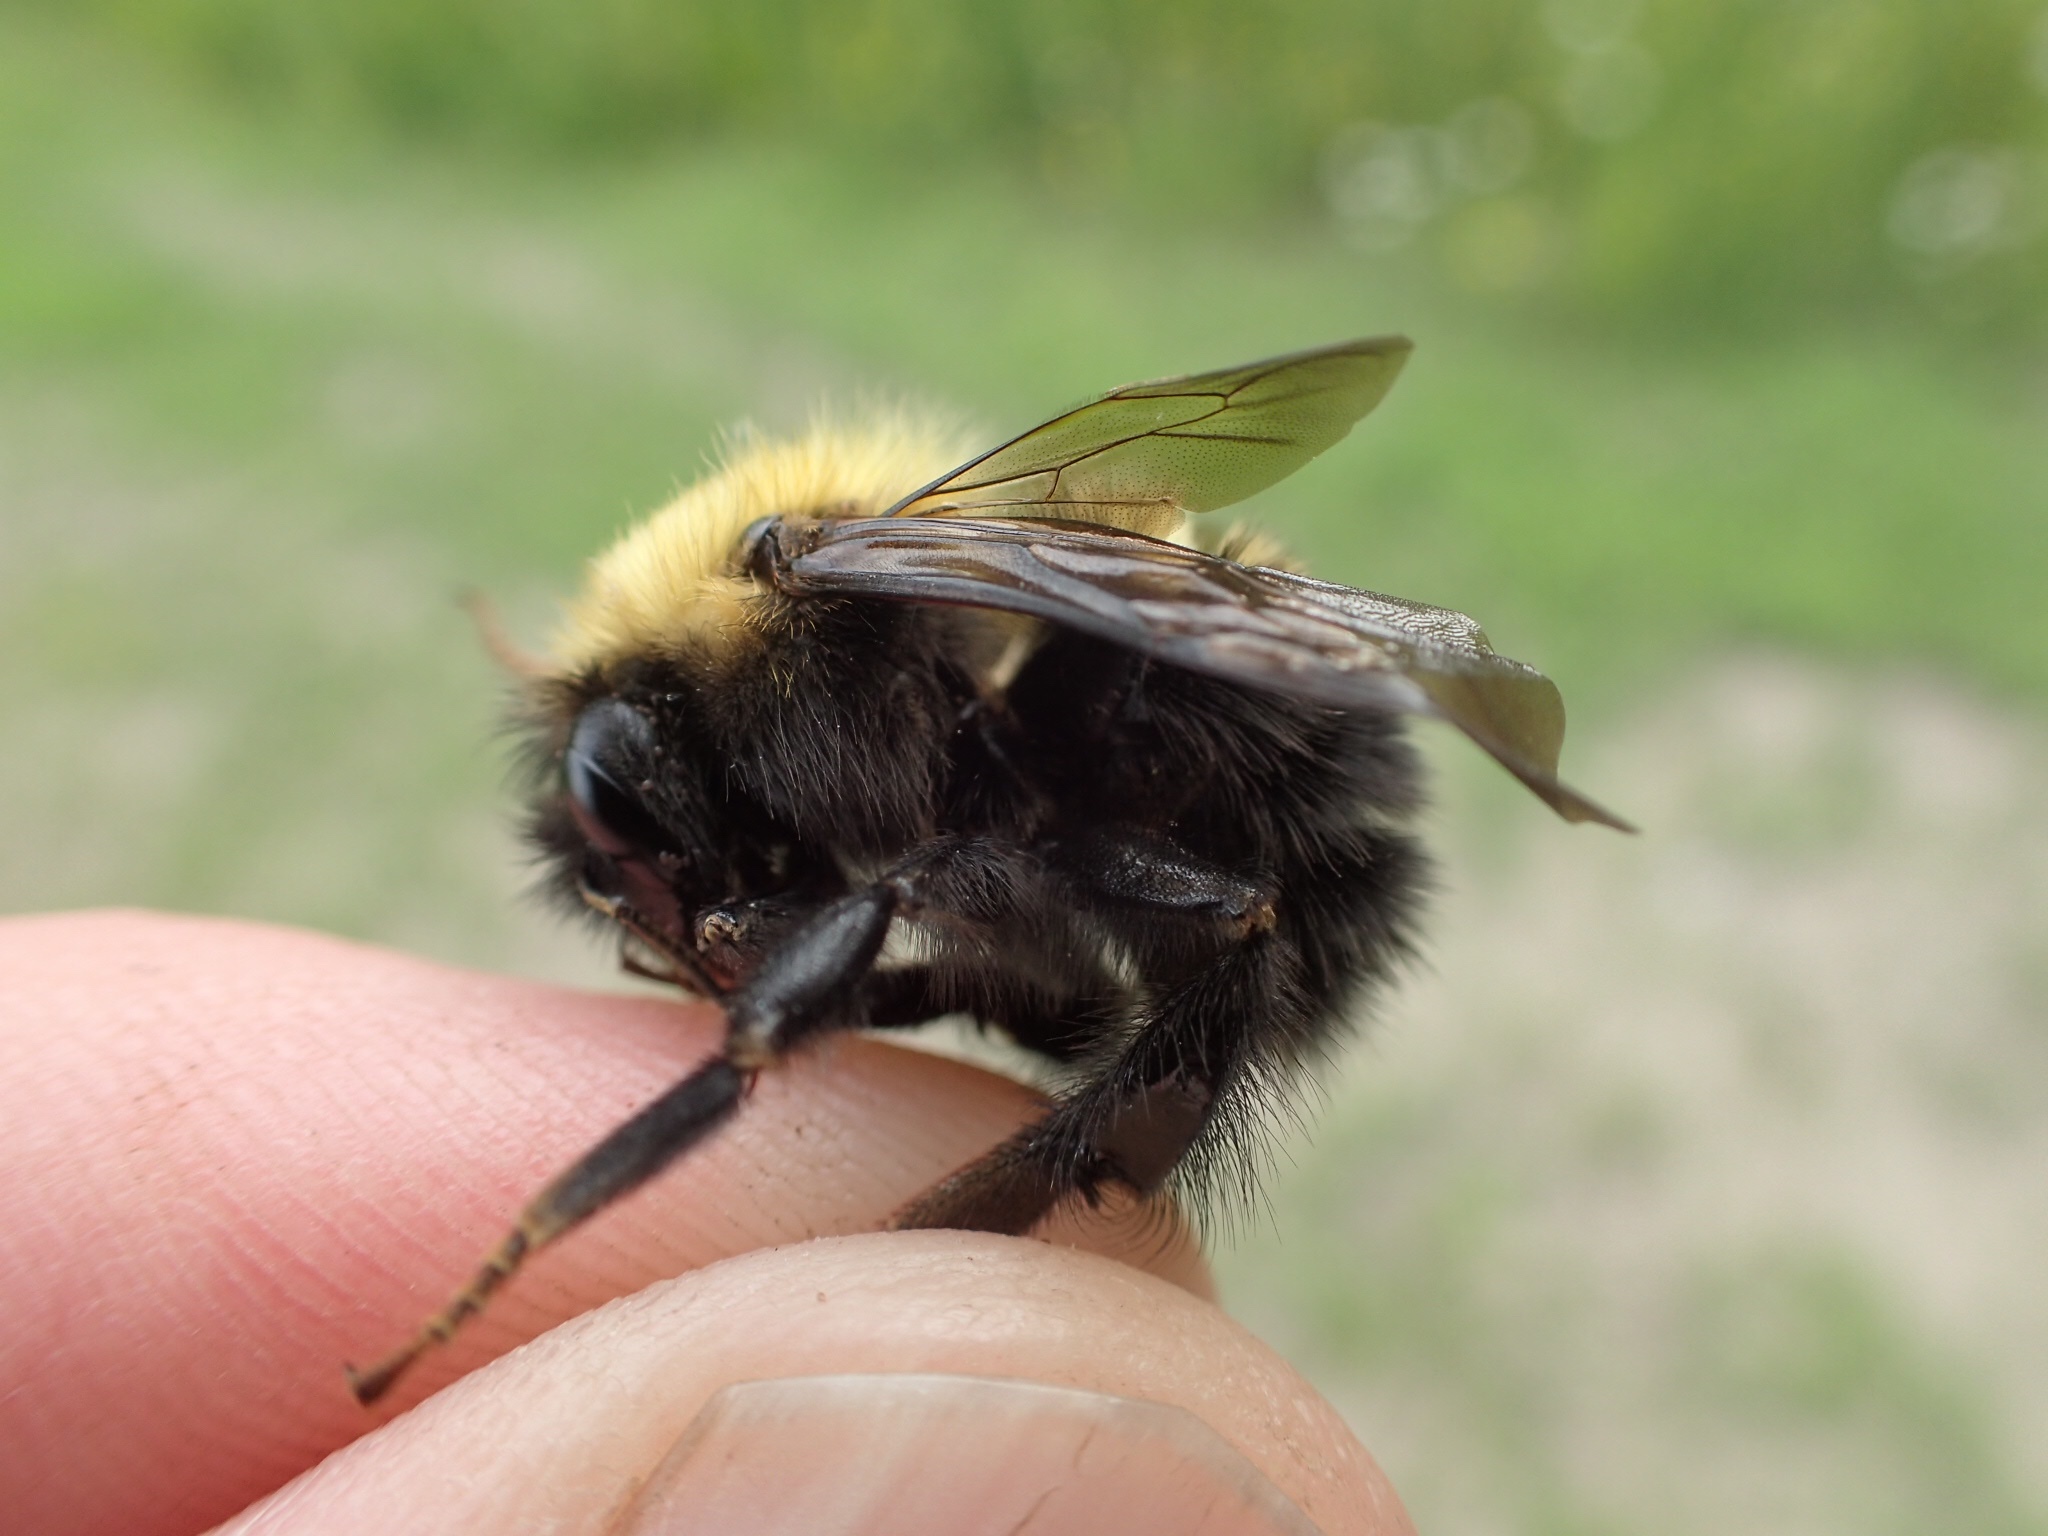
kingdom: Animalia
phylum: Arthropoda
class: Insecta
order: Hymenoptera
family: Apidae
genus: Bombus
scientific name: Bombus perplexus
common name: Confusing bumble bee
